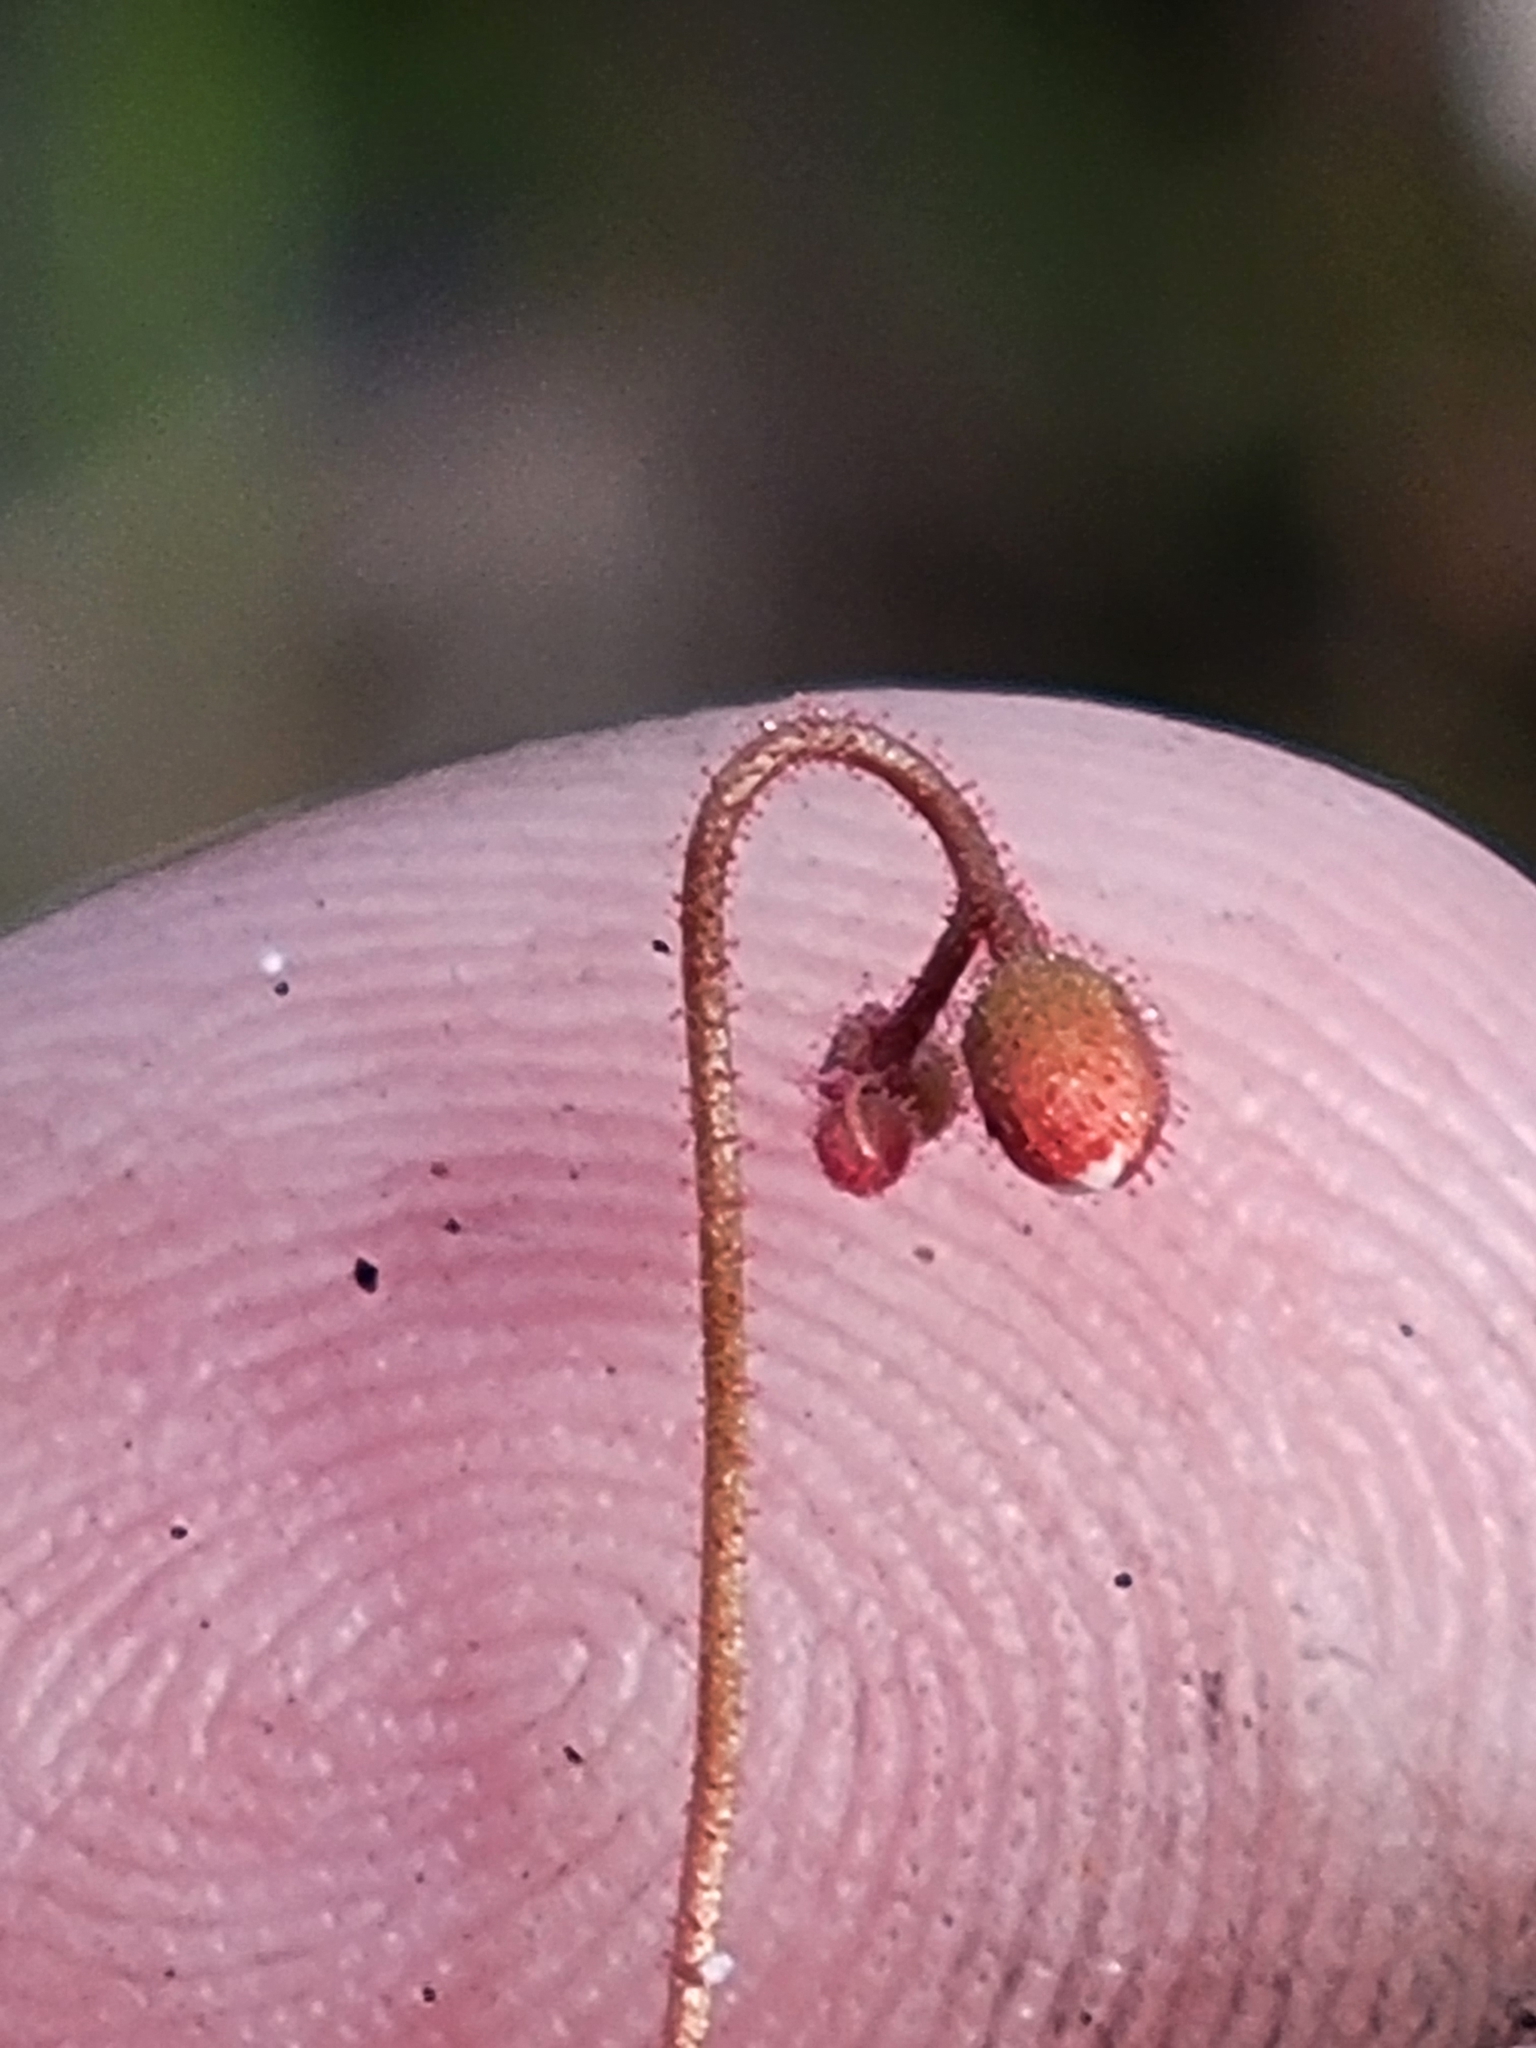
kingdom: Plantae
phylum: Tracheophyta
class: Magnoliopsida
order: Caryophyllales
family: Droseraceae
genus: Drosera
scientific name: Drosera brevifolia
